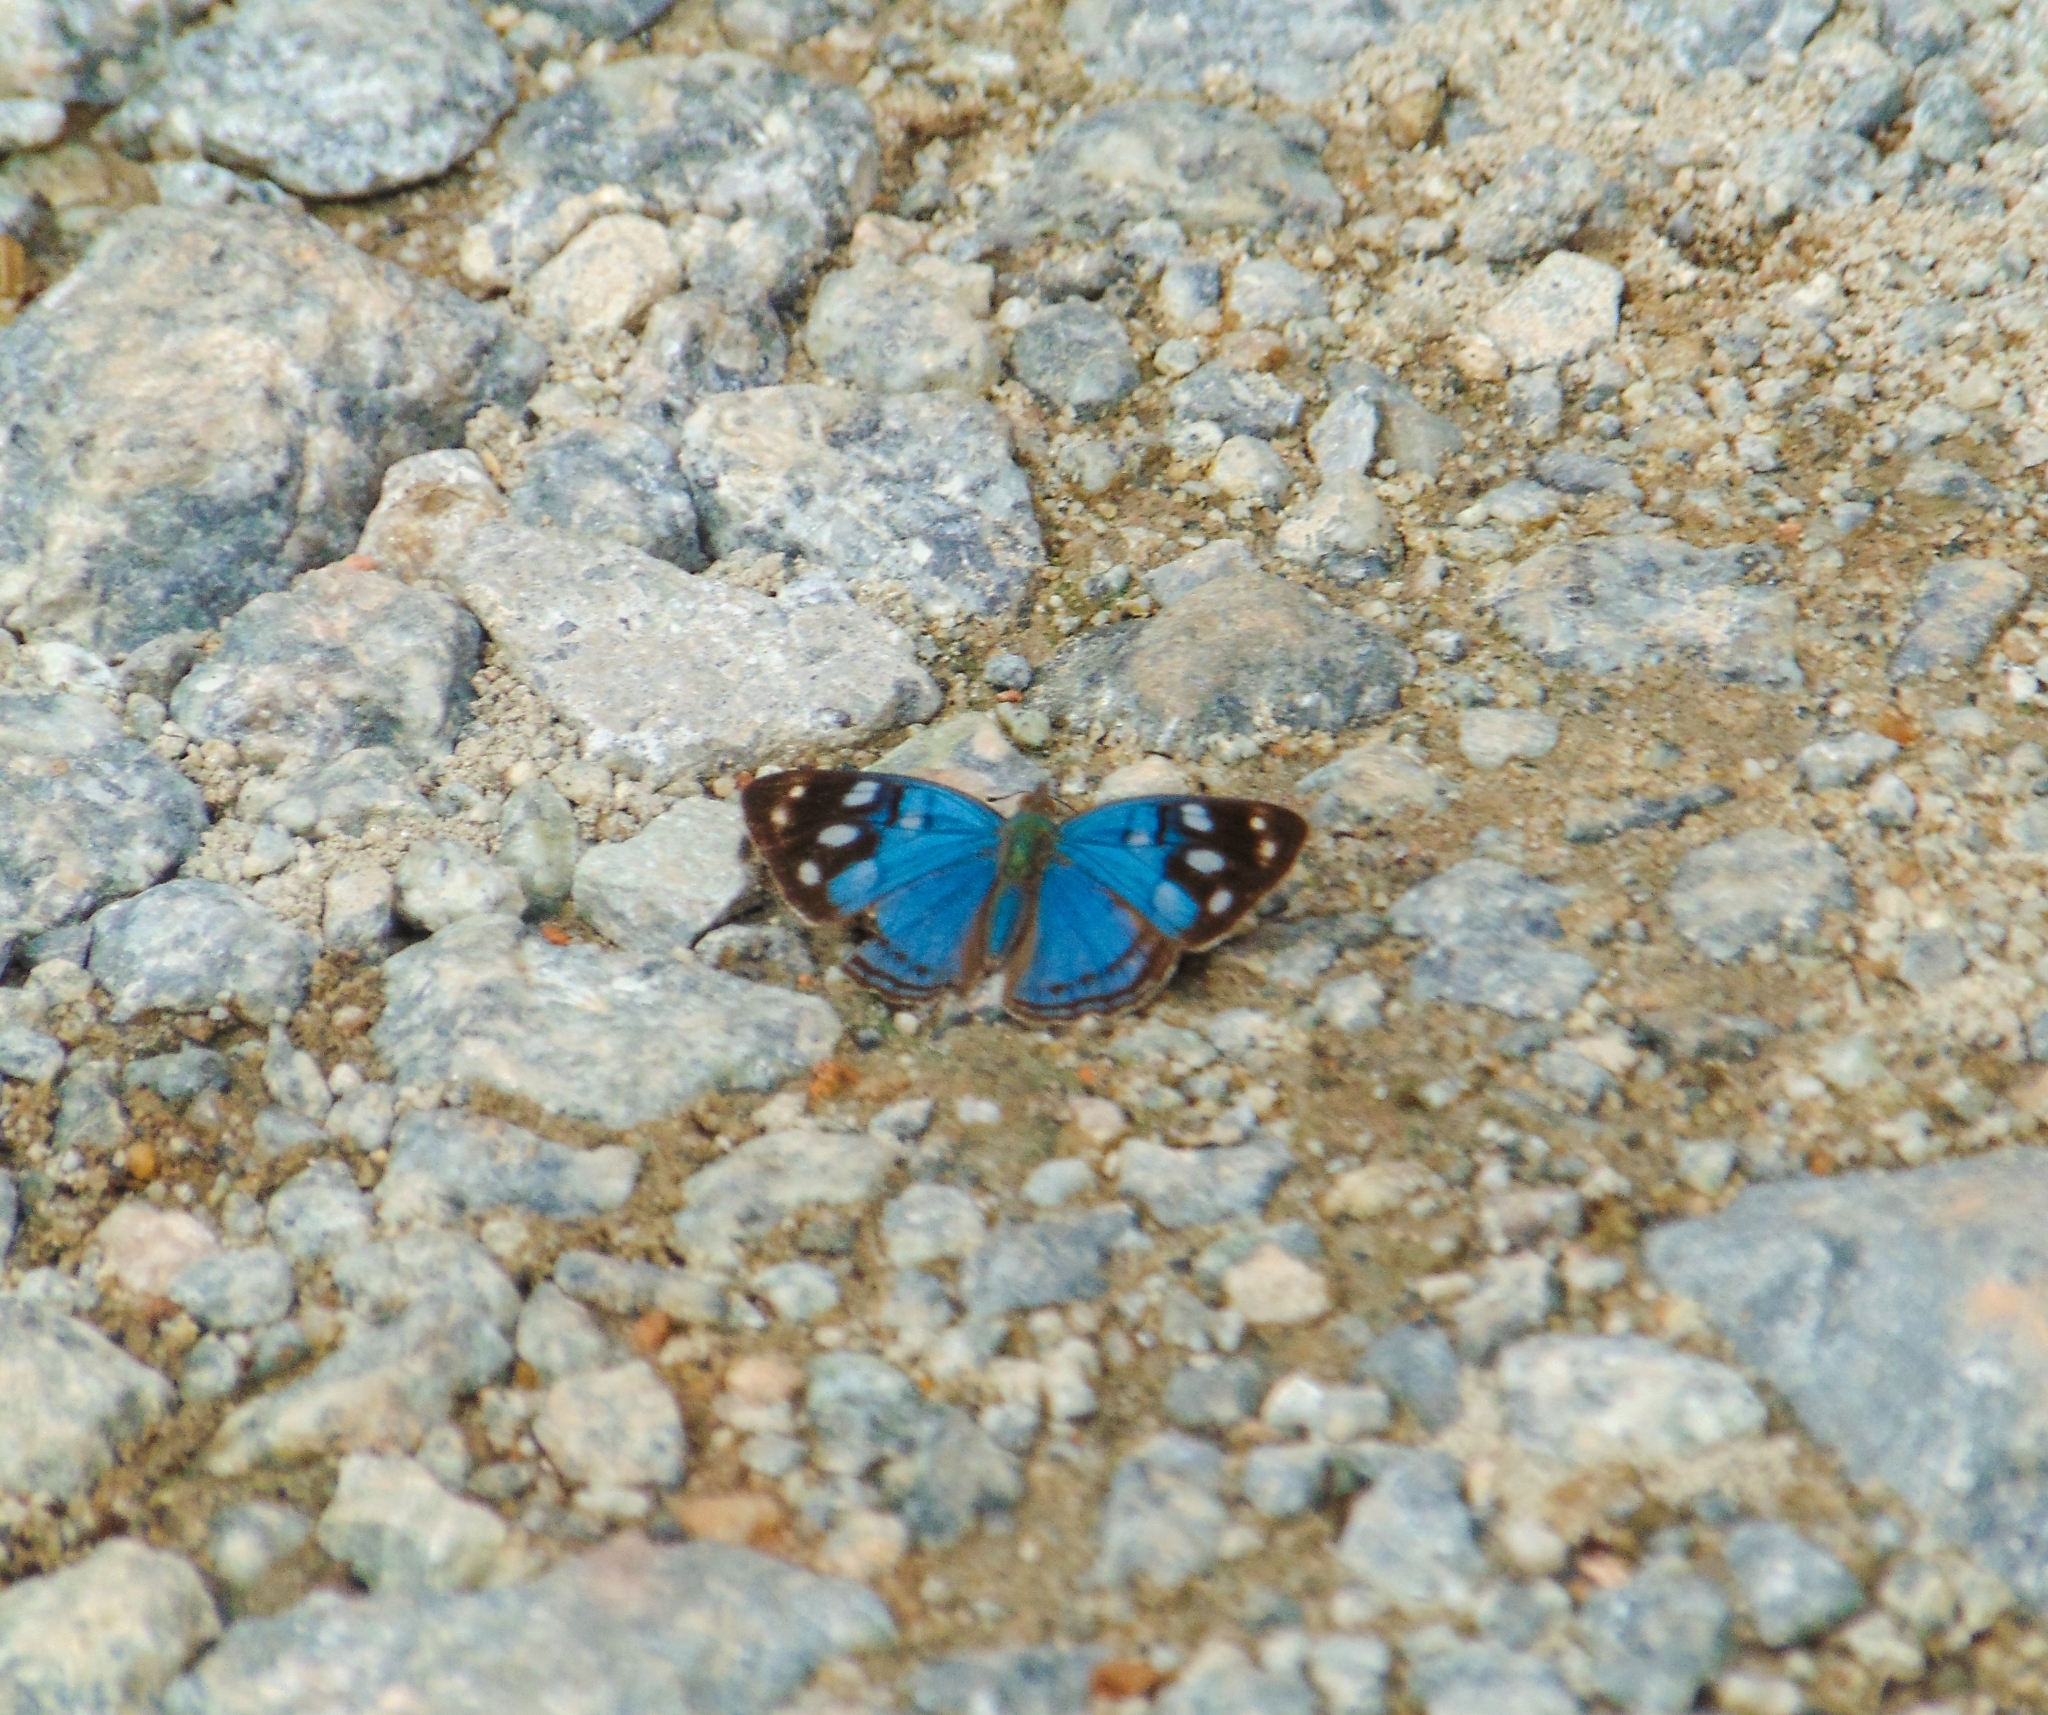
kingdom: Animalia
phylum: Arthropoda
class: Insecta
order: Lepidoptera
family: Nymphalidae
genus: Dynamine
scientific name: Dynamine tithia
